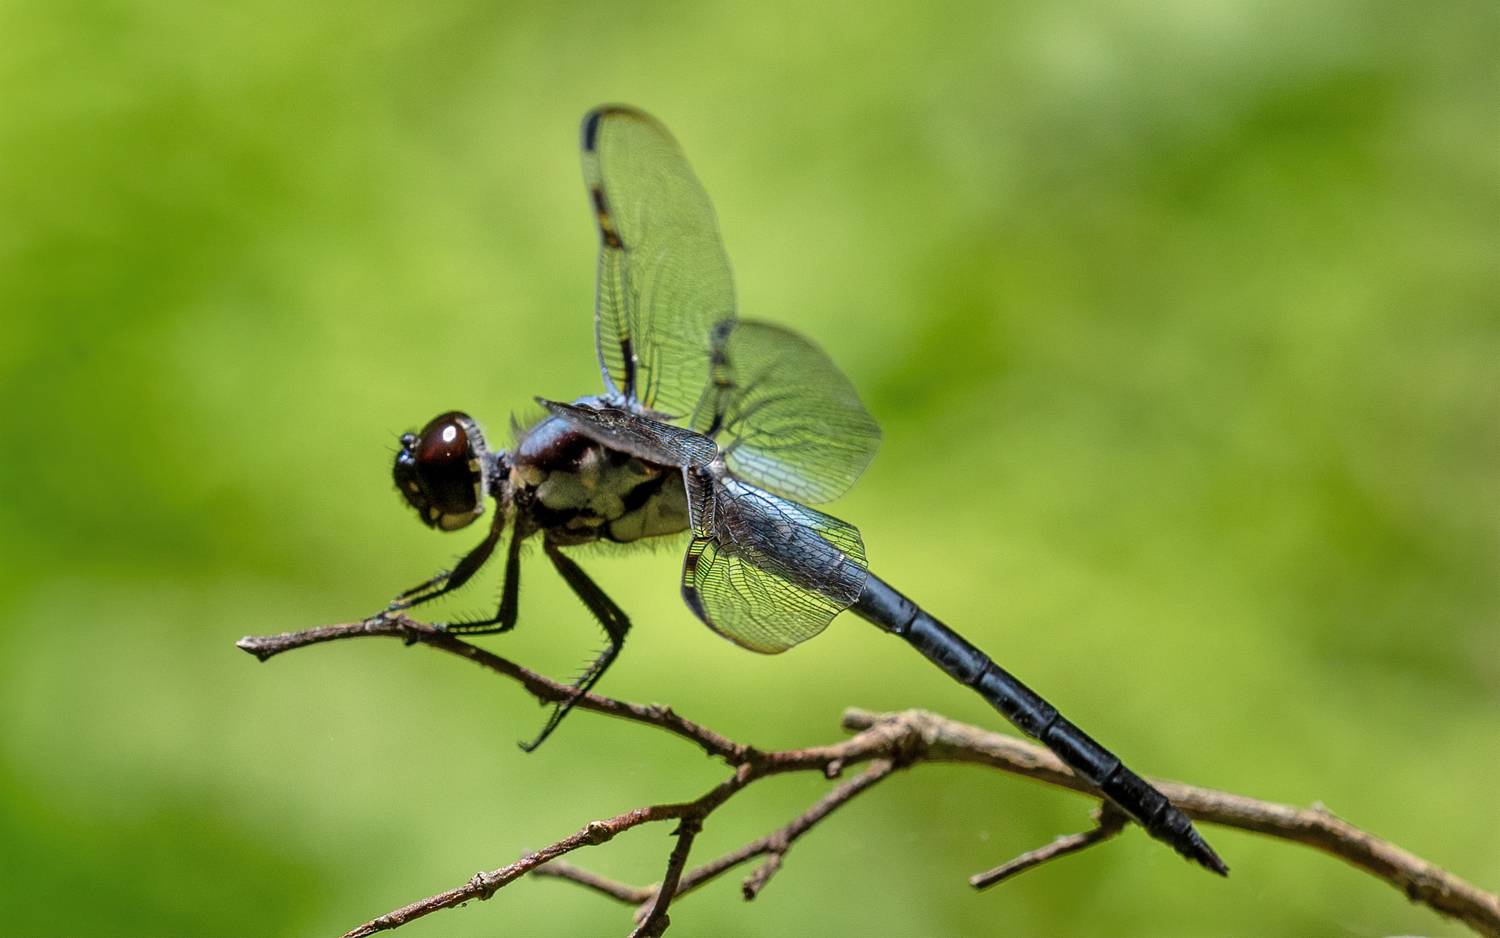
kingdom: Animalia
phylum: Arthropoda
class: Insecta
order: Odonata
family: Libellulidae
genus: Libellula
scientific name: Libellula axilena
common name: Bar-winged skimmer
